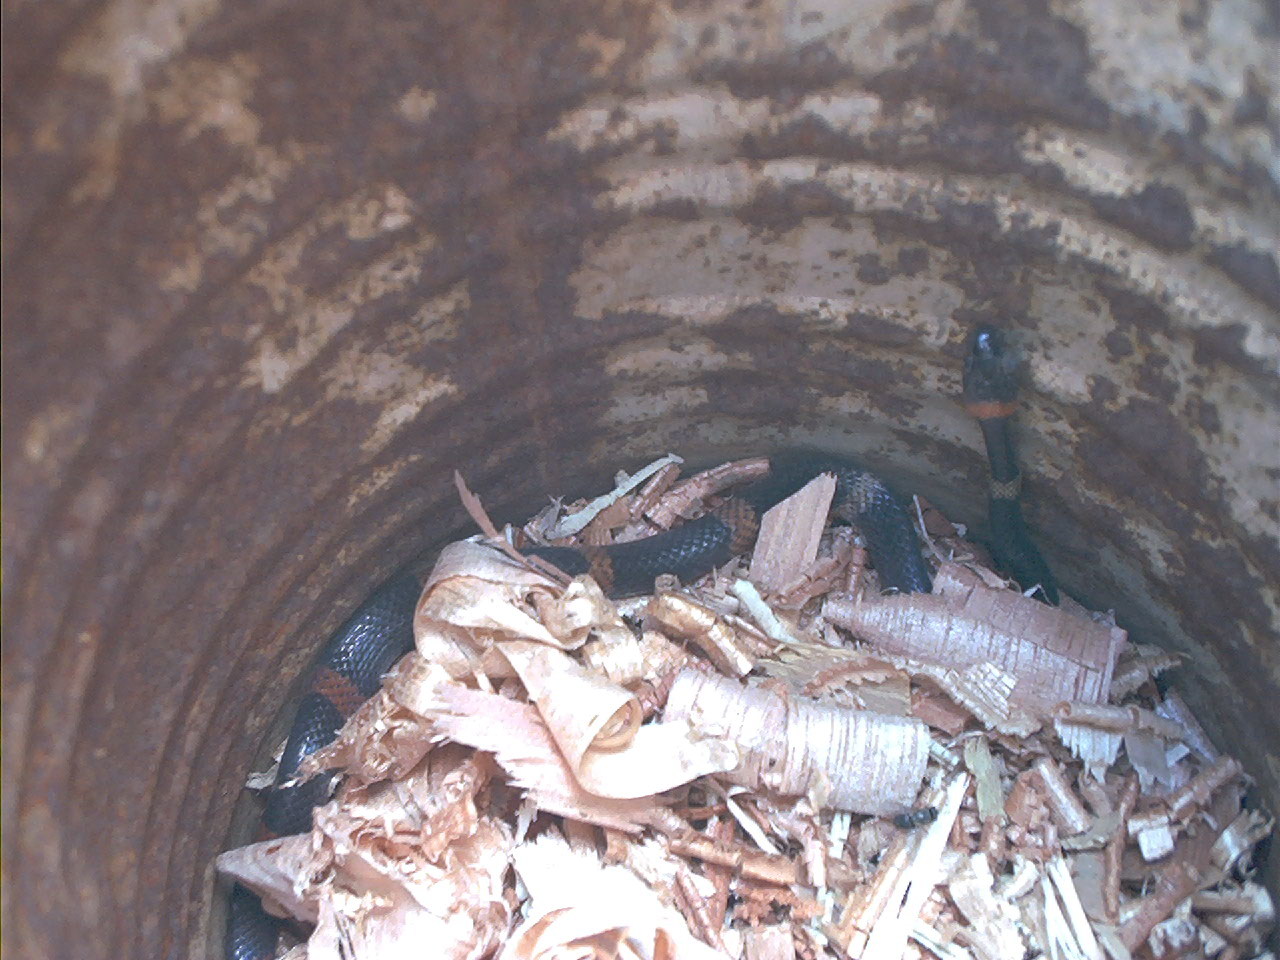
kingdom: Animalia
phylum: Chordata
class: Squamata
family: Colubridae
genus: Oxyrhopus
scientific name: Oxyrhopus rhombifer
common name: Amazon false coral snake
